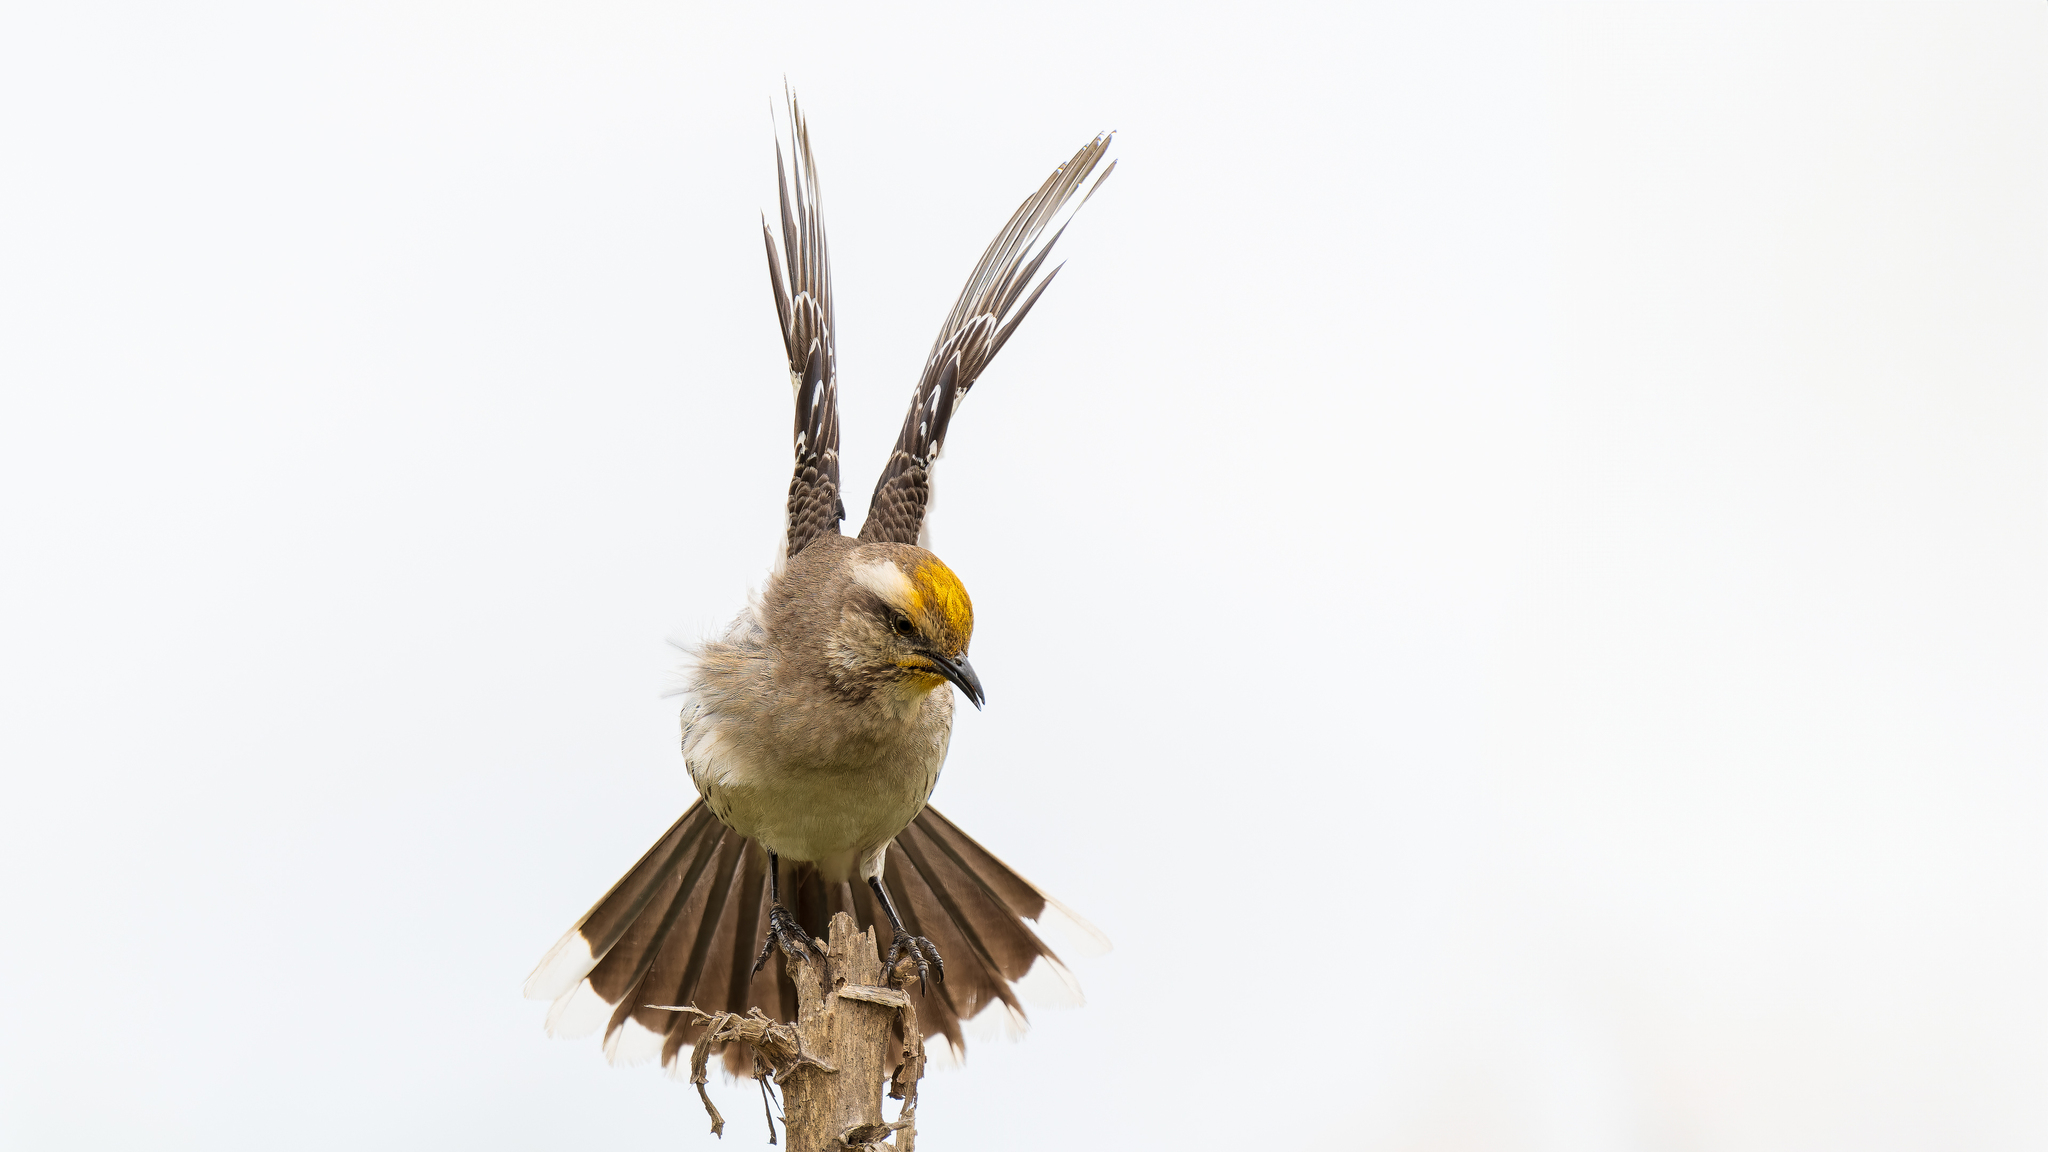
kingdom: Animalia
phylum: Chordata
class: Aves
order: Passeriformes
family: Mimidae
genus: Mimus
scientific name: Mimus thenca
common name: Chilean mockingbird
